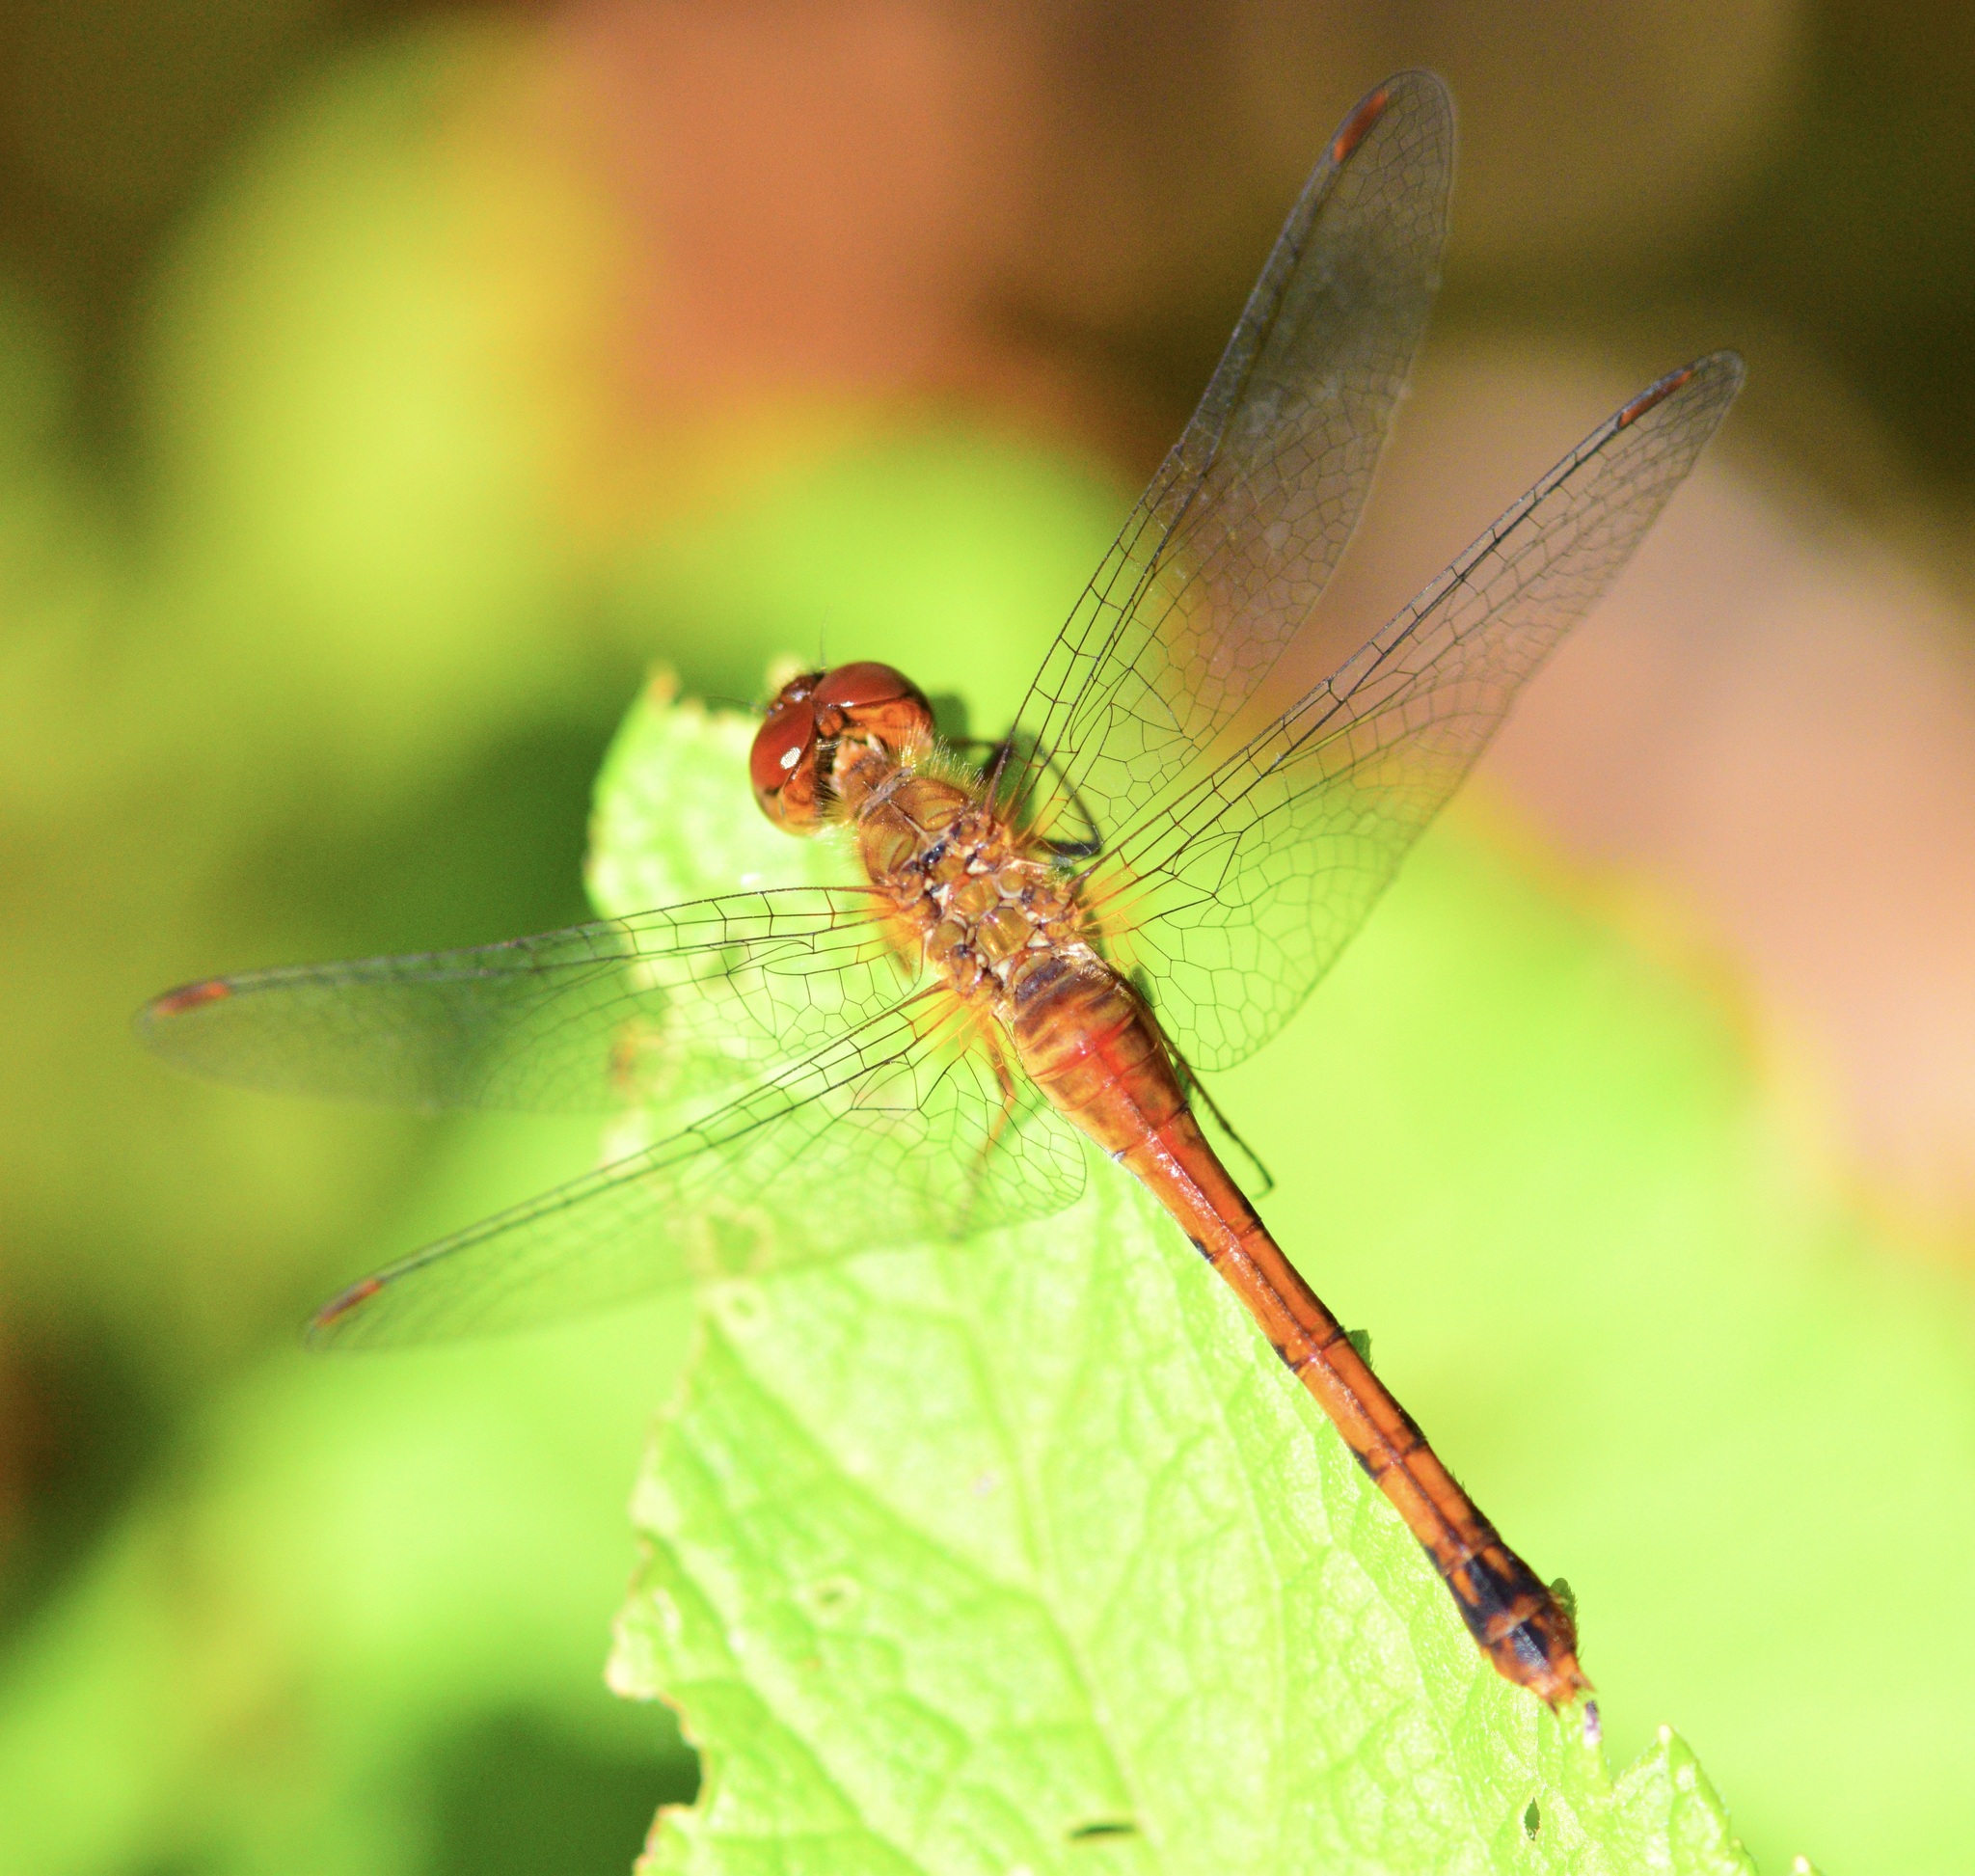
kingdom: Animalia
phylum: Arthropoda
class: Insecta
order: Odonata
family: Libellulidae
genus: Sympetrum
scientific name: Sympetrum vicinum
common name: Autumn meadowhawk
